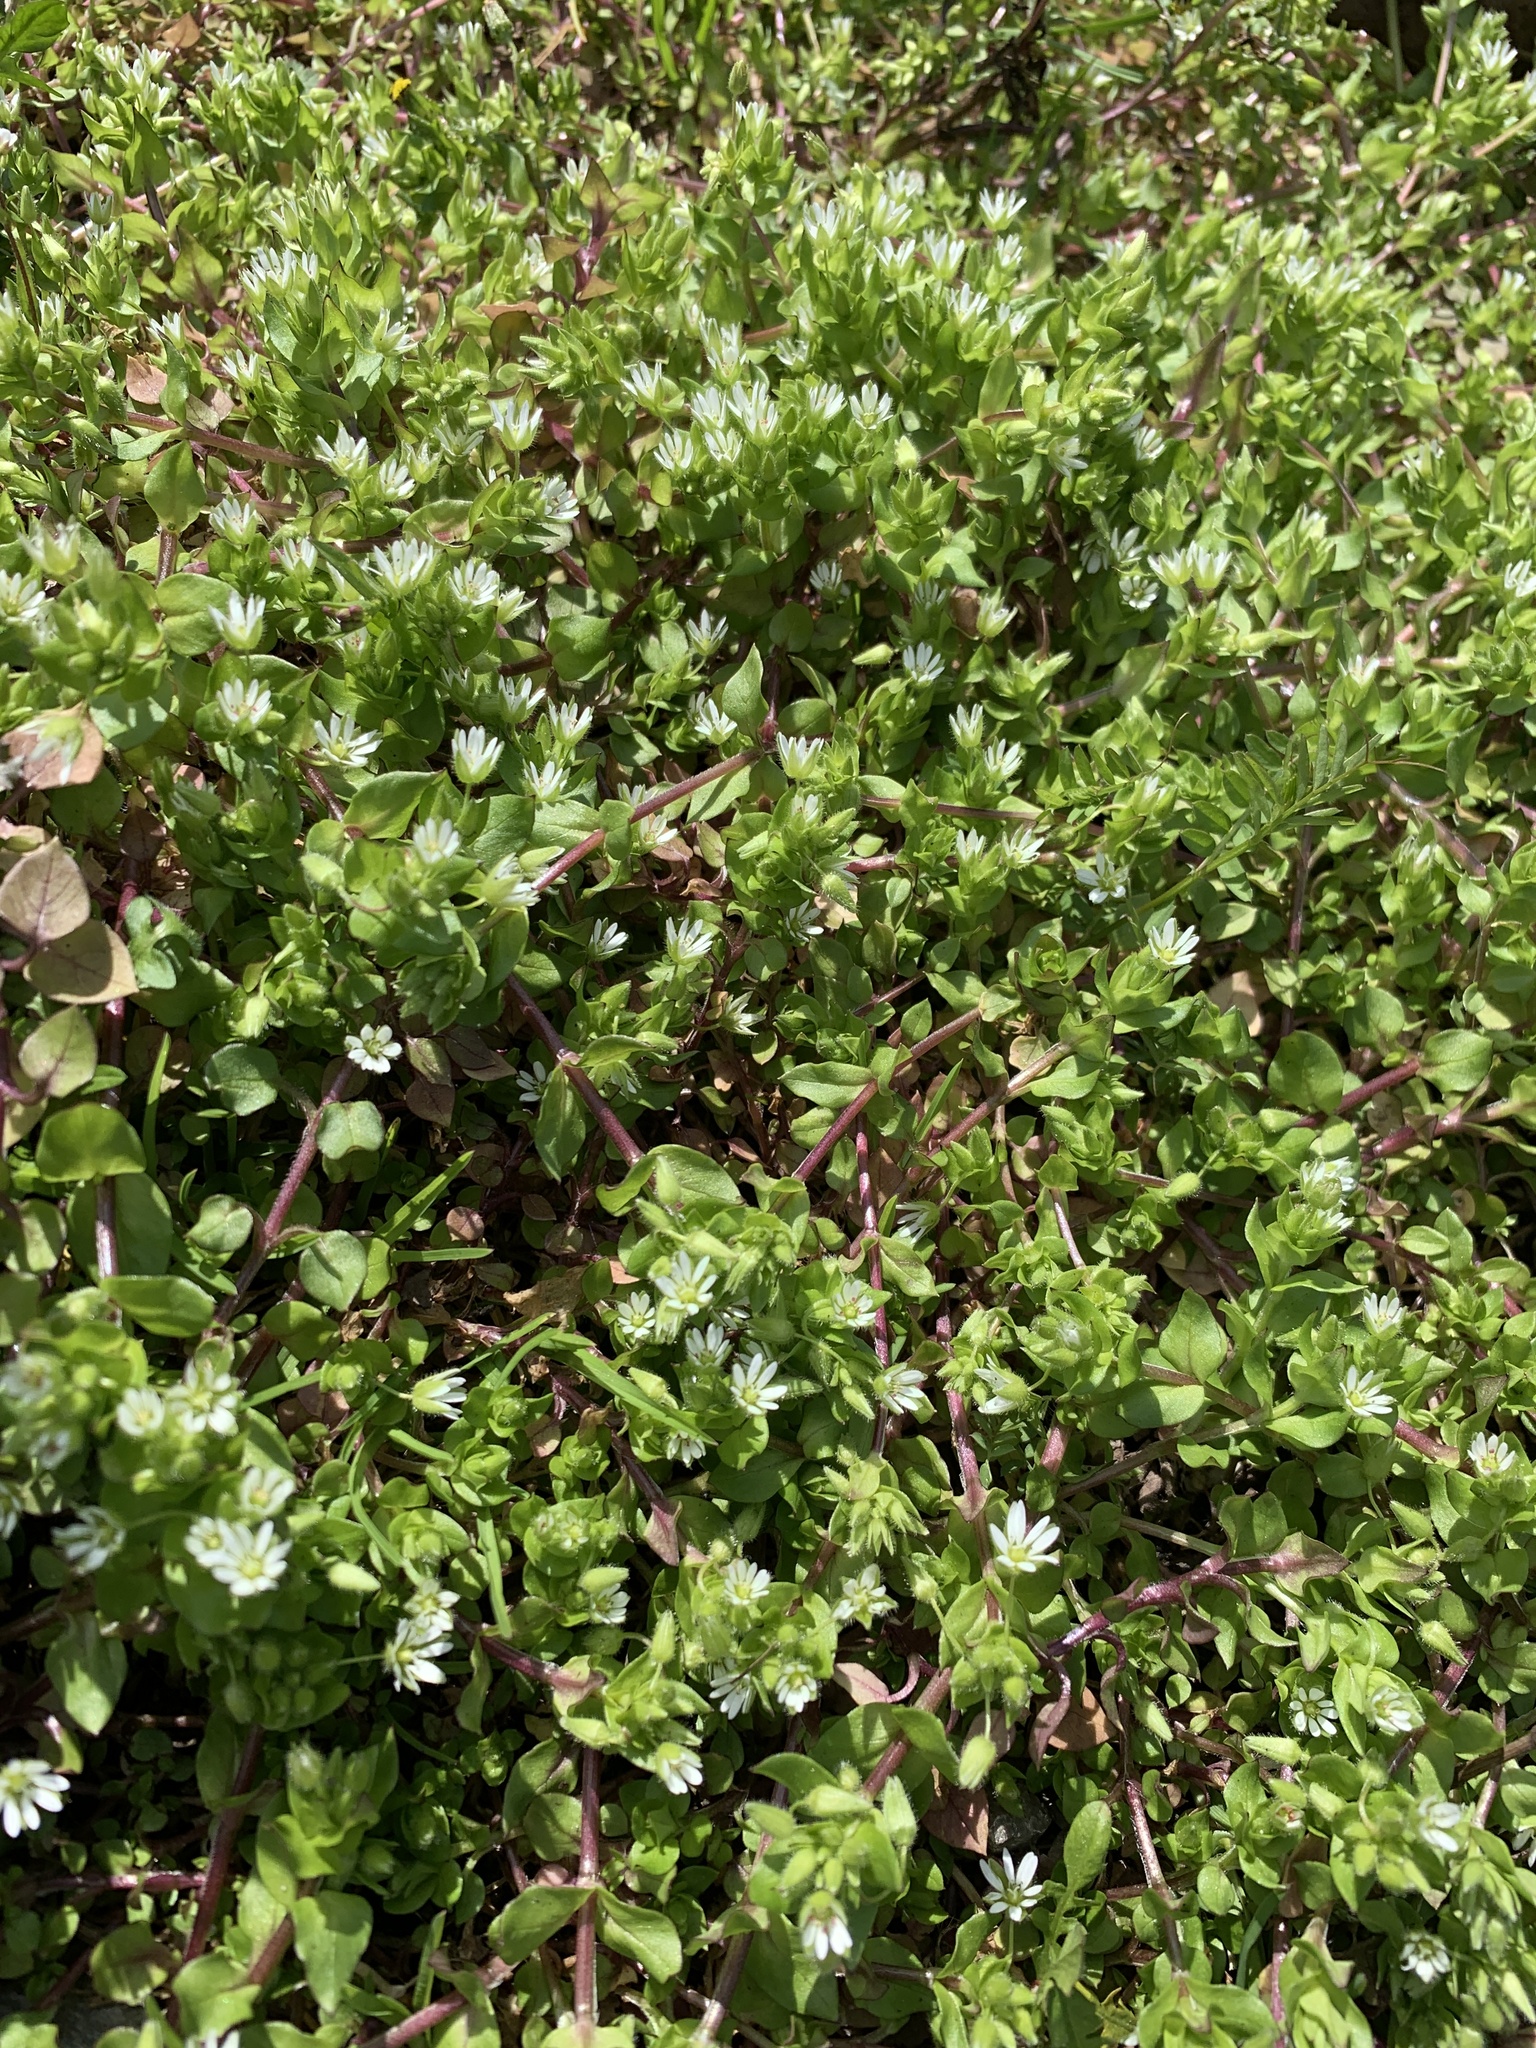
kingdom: Plantae
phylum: Tracheophyta
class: Magnoliopsida
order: Caryophyllales
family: Caryophyllaceae
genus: Stellaria
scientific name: Stellaria media
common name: Common chickweed
